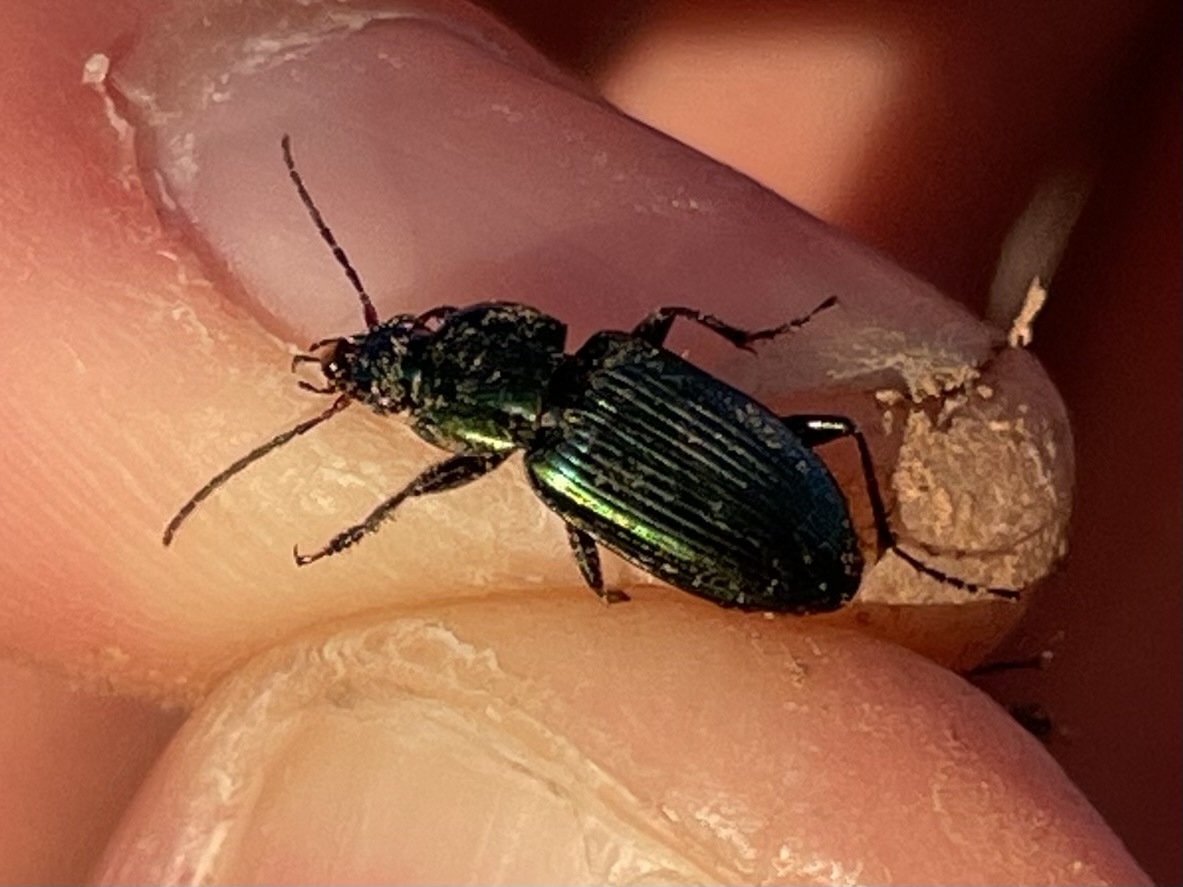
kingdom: Animalia
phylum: Arthropoda
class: Insecta
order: Coleoptera
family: Carabidae
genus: Poecilus
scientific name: Poecilus chalcites
